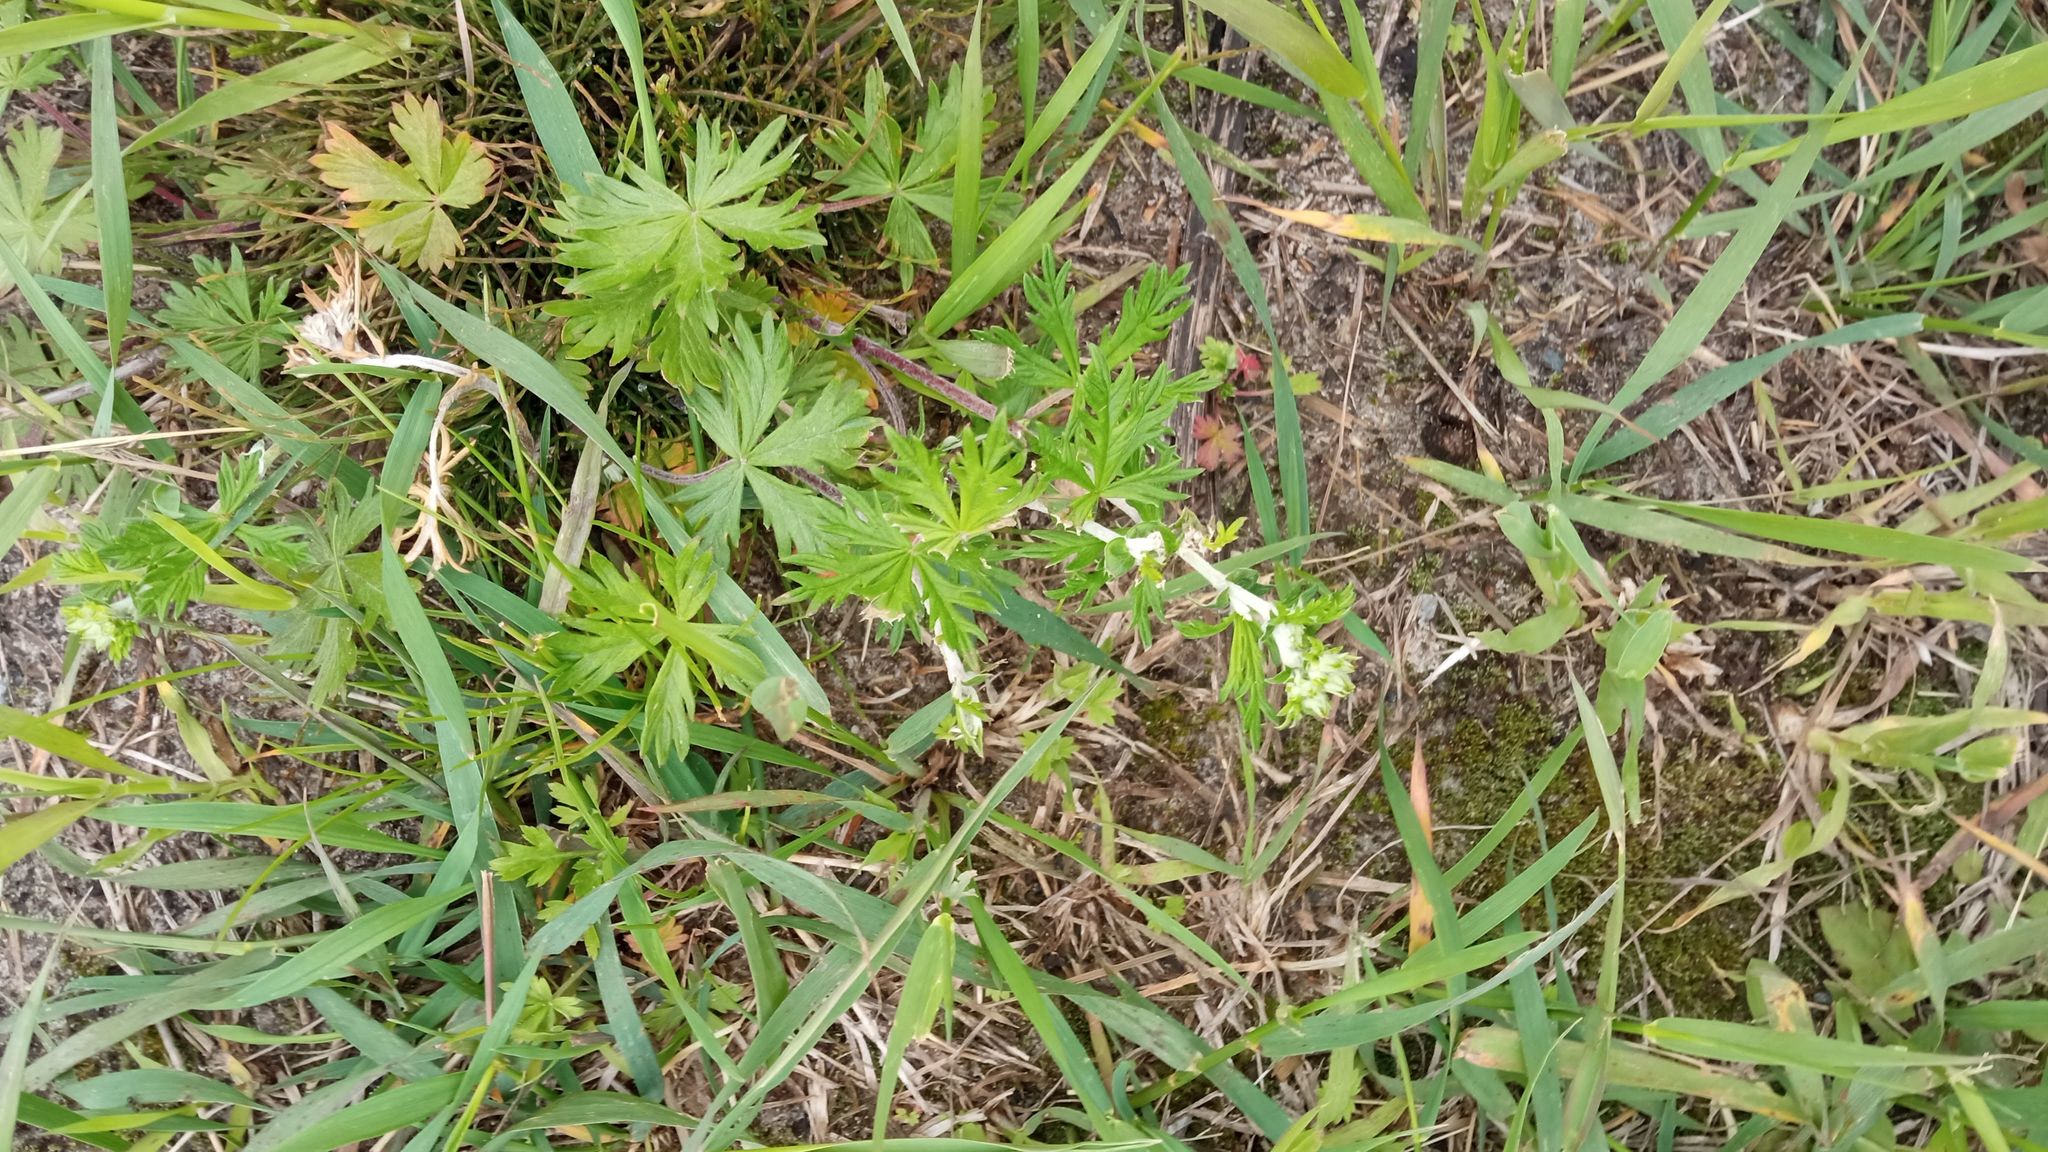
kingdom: Plantae
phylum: Tracheophyta
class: Magnoliopsida
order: Rosales
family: Rosaceae
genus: Potentilla
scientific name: Potentilla argentea
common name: Hoary cinquefoil
